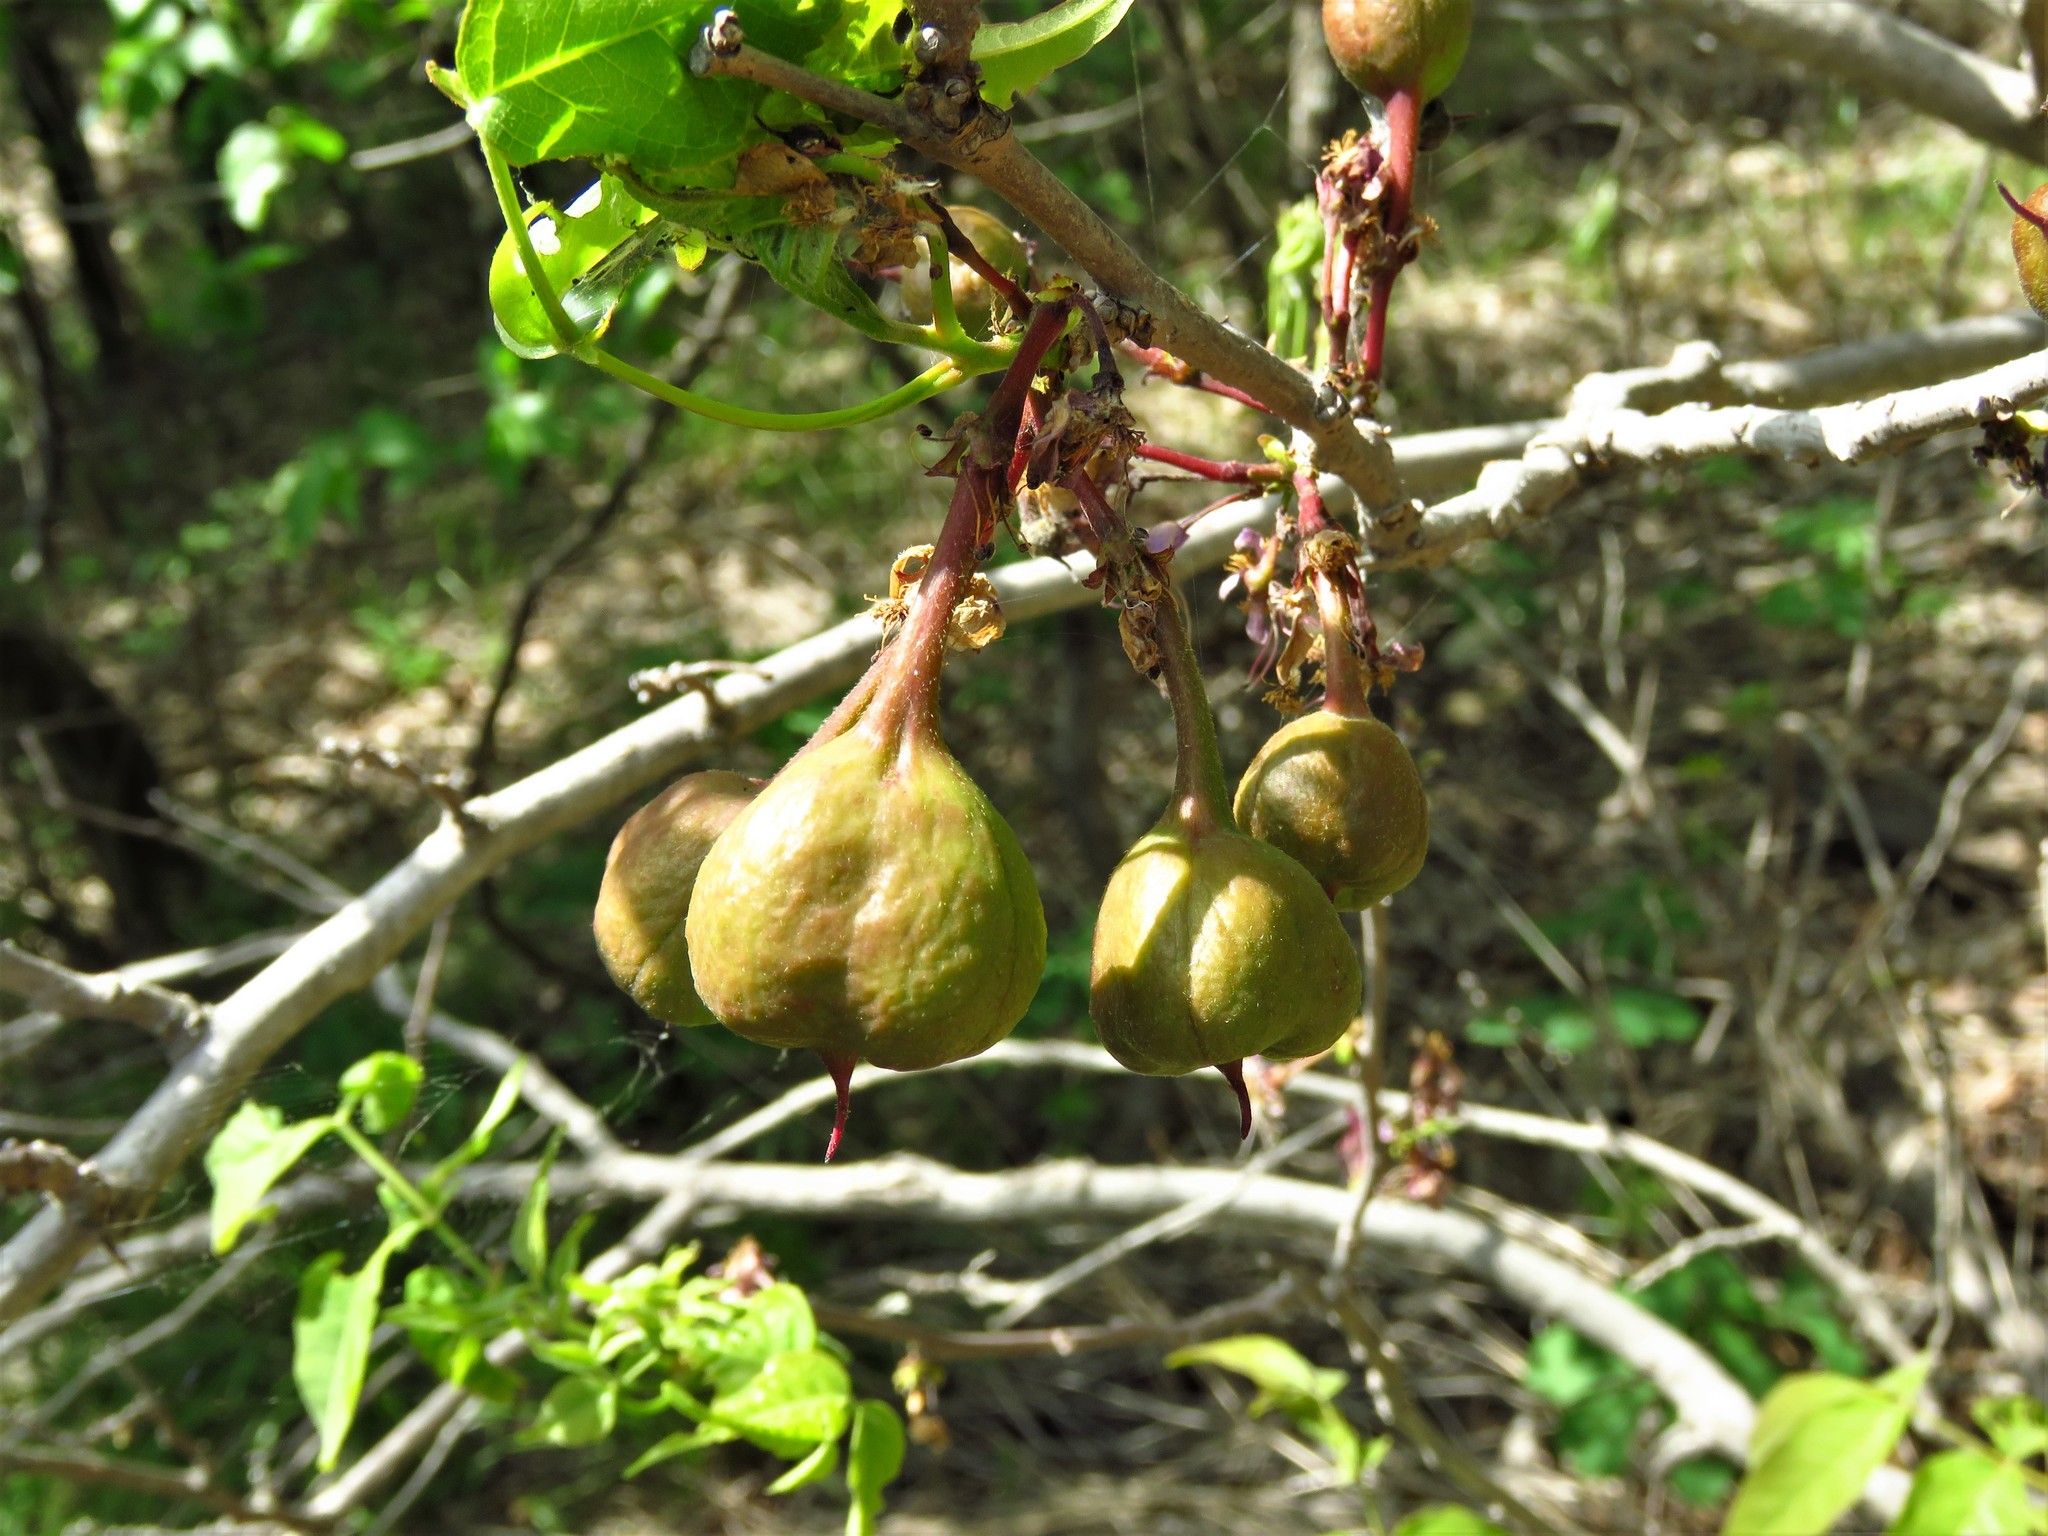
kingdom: Plantae
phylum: Tracheophyta
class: Magnoliopsida
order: Sapindales
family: Sapindaceae
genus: Ungnadia
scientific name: Ungnadia speciosa
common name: Texas-buckeye
